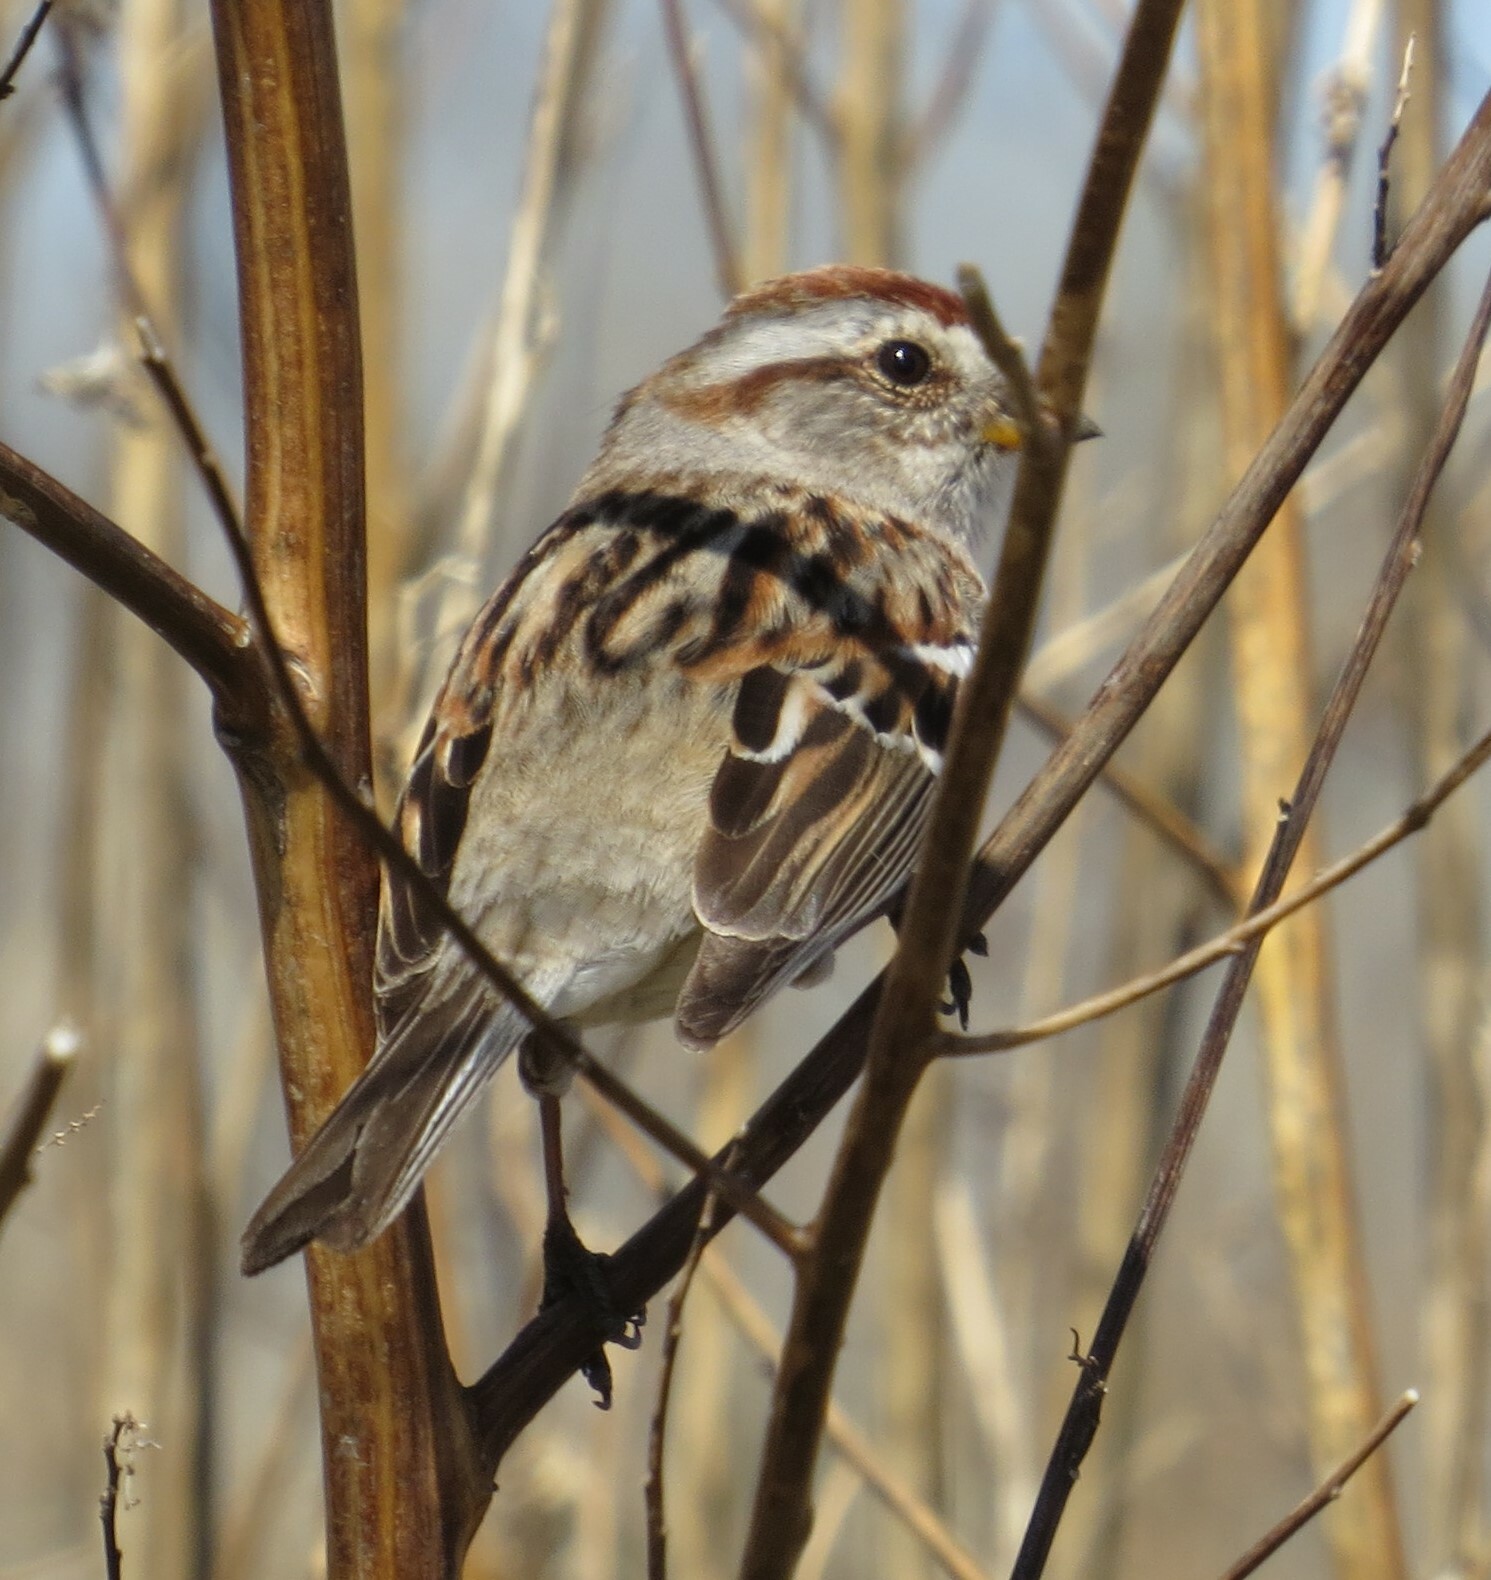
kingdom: Animalia
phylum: Chordata
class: Aves
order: Passeriformes
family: Passerellidae
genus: Spizelloides
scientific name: Spizelloides arborea
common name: American tree sparrow
